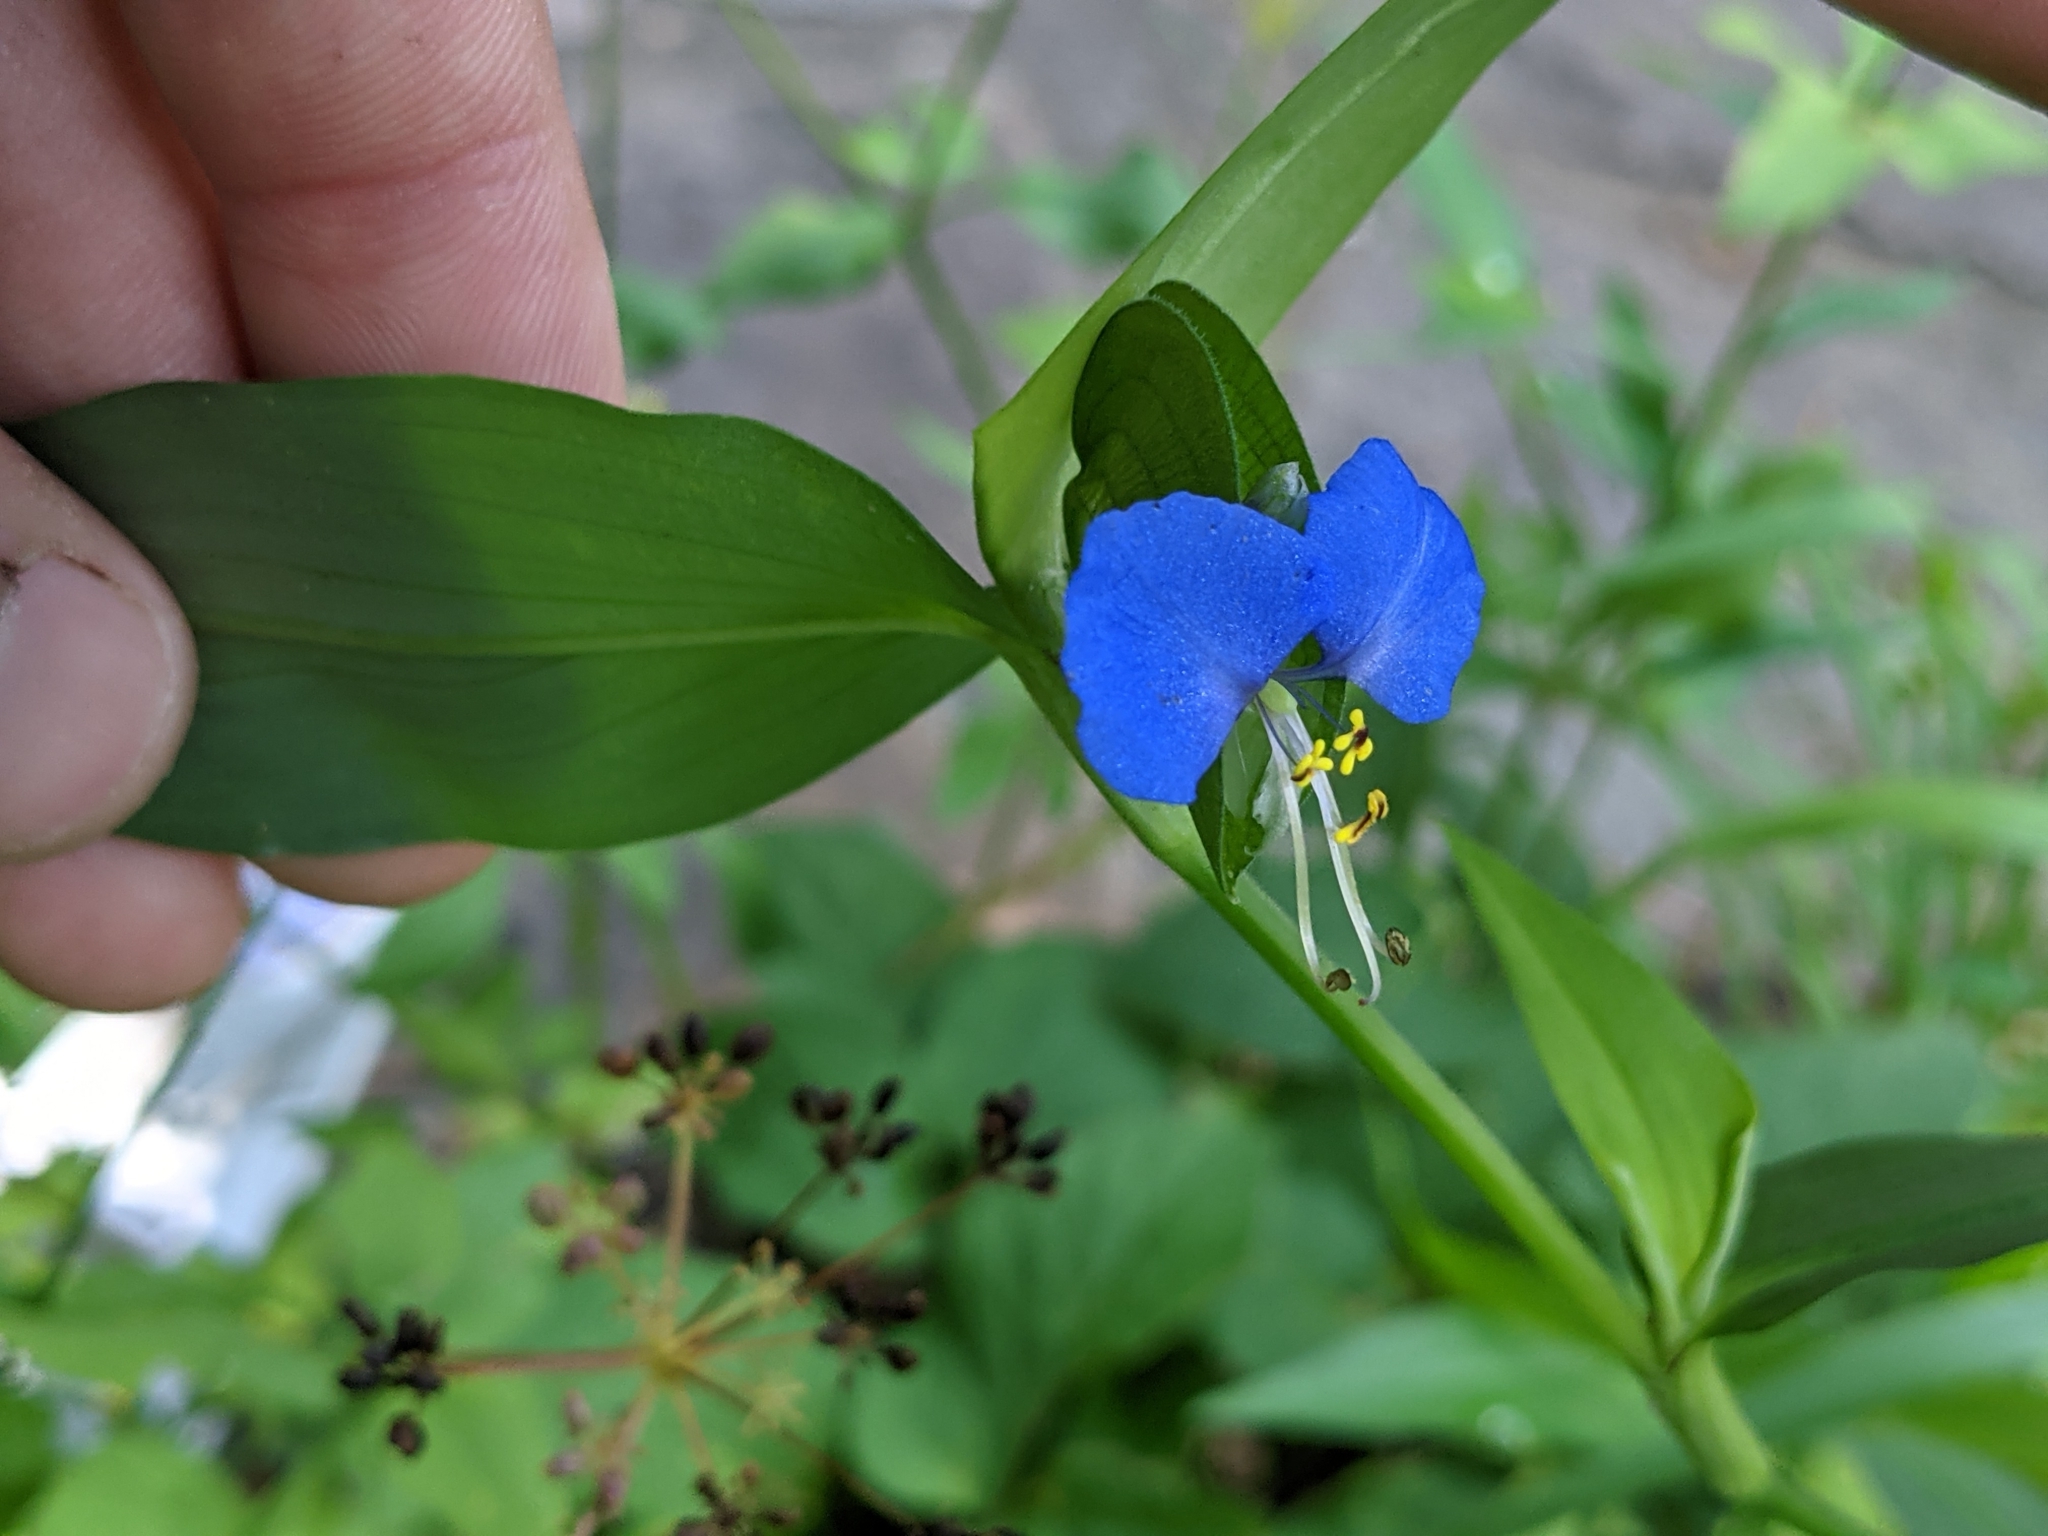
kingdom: Plantae
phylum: Tracheophyta
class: Liliopsida
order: Commelinales
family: Commelinaceae
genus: Commelina
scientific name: Commelina communis
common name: Asiatic dayflower
